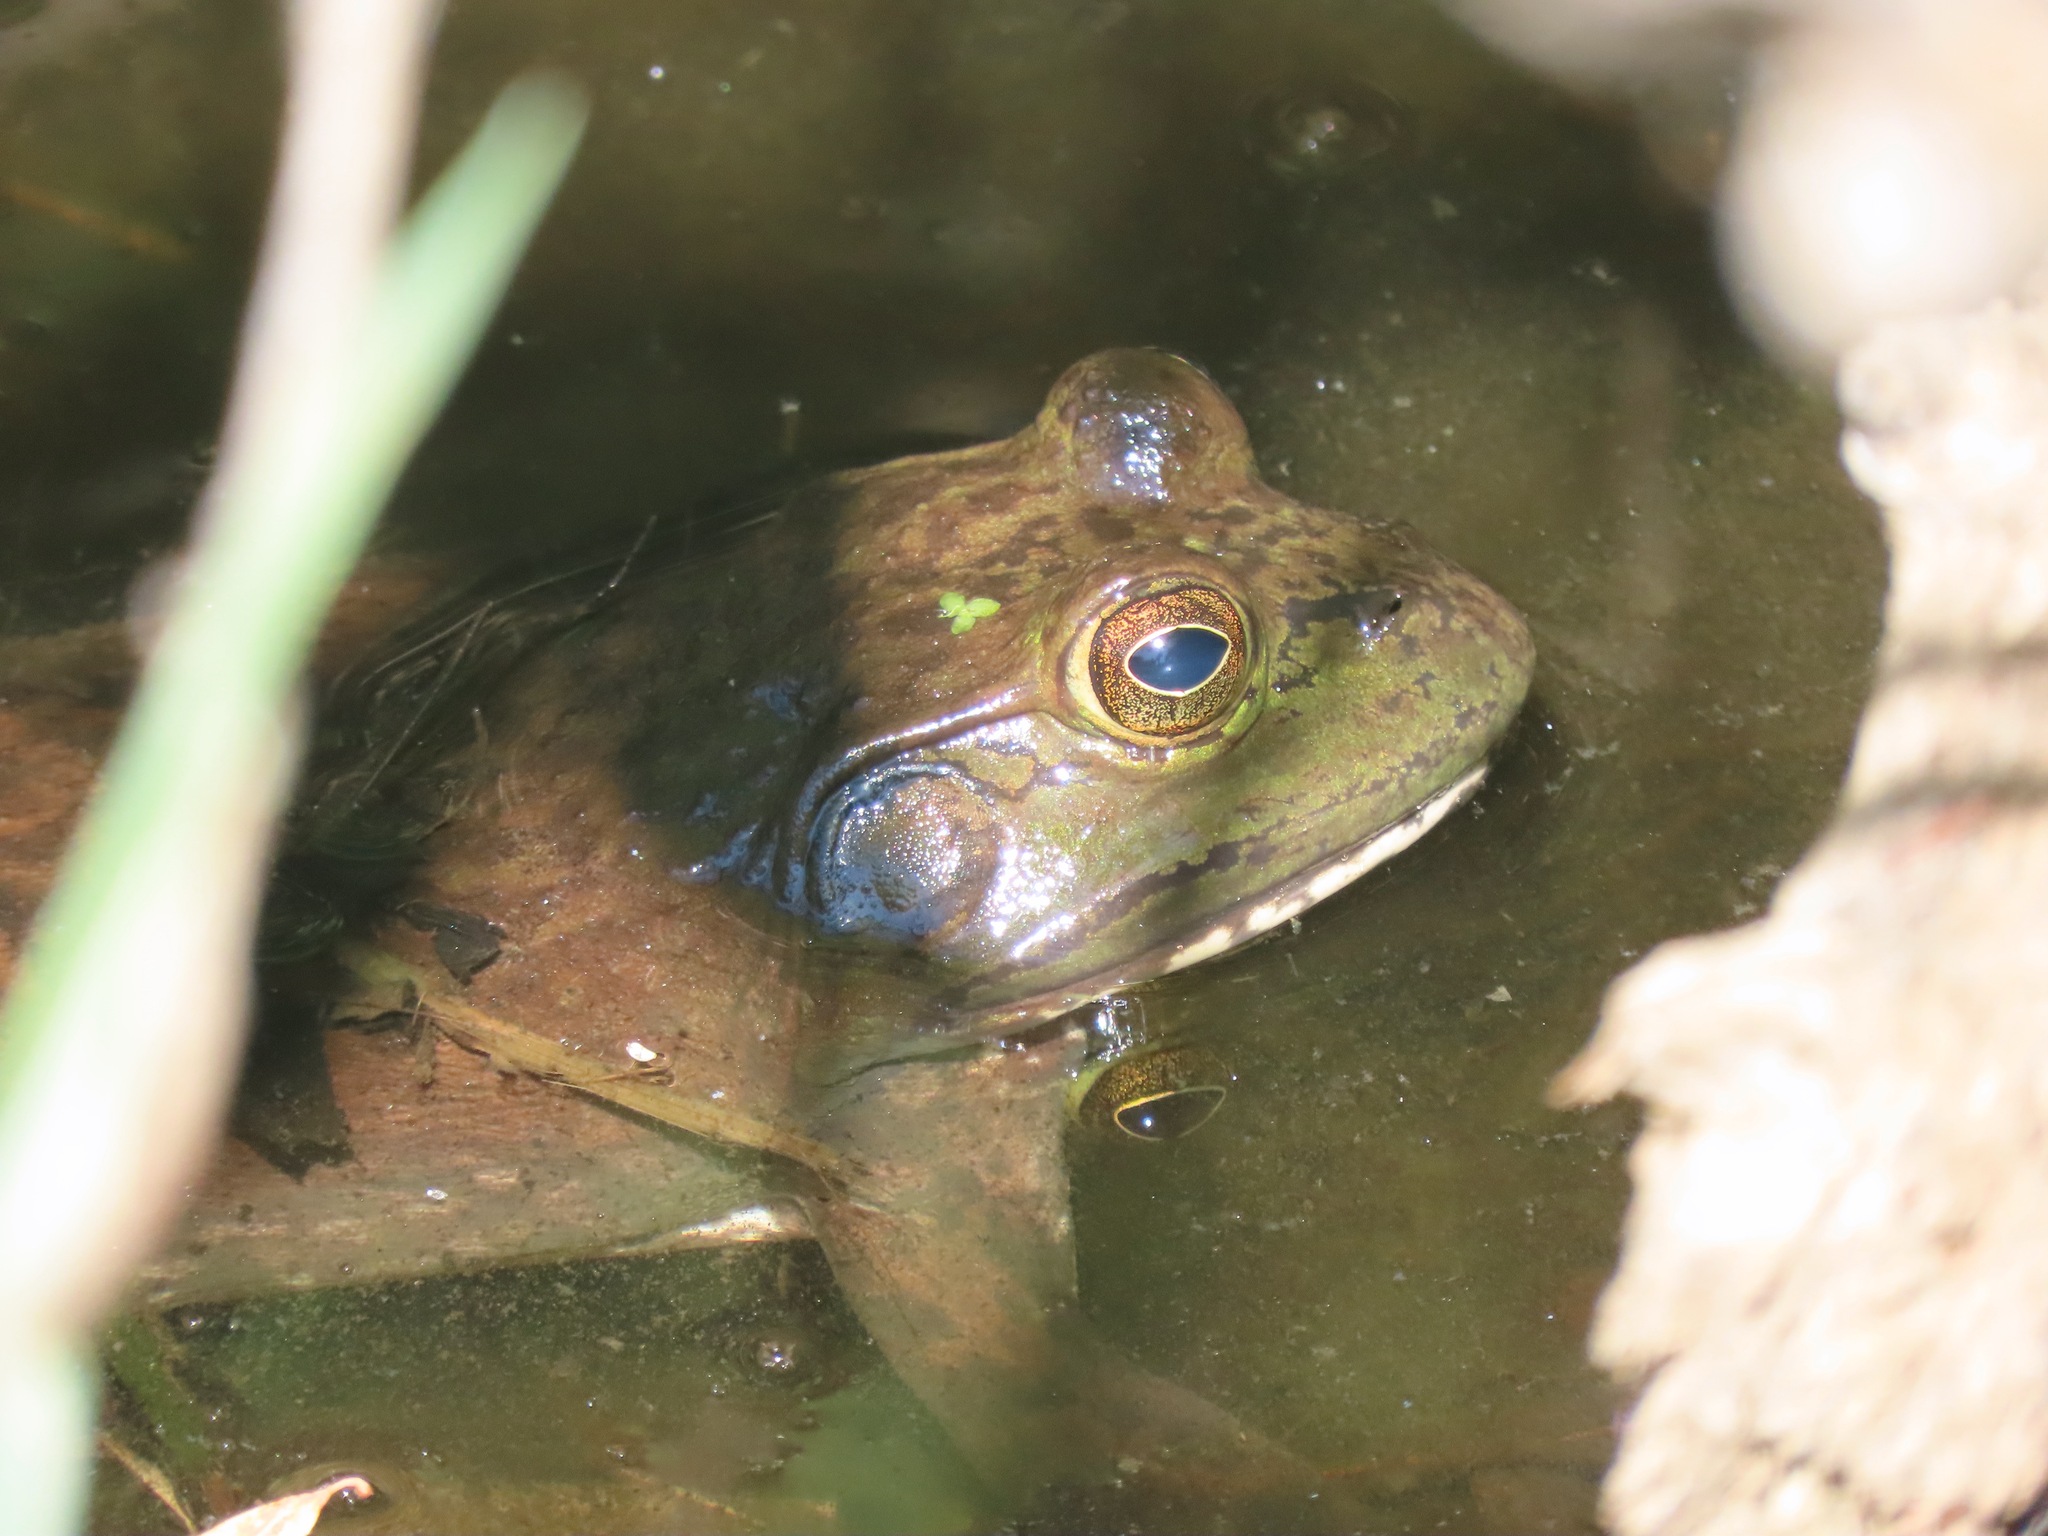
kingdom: Animalia
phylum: Chordata
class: Amphibia
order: Anura
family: Ranidae
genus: Lithobates
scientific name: Lithobates catesbeianus
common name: American bullfrog
